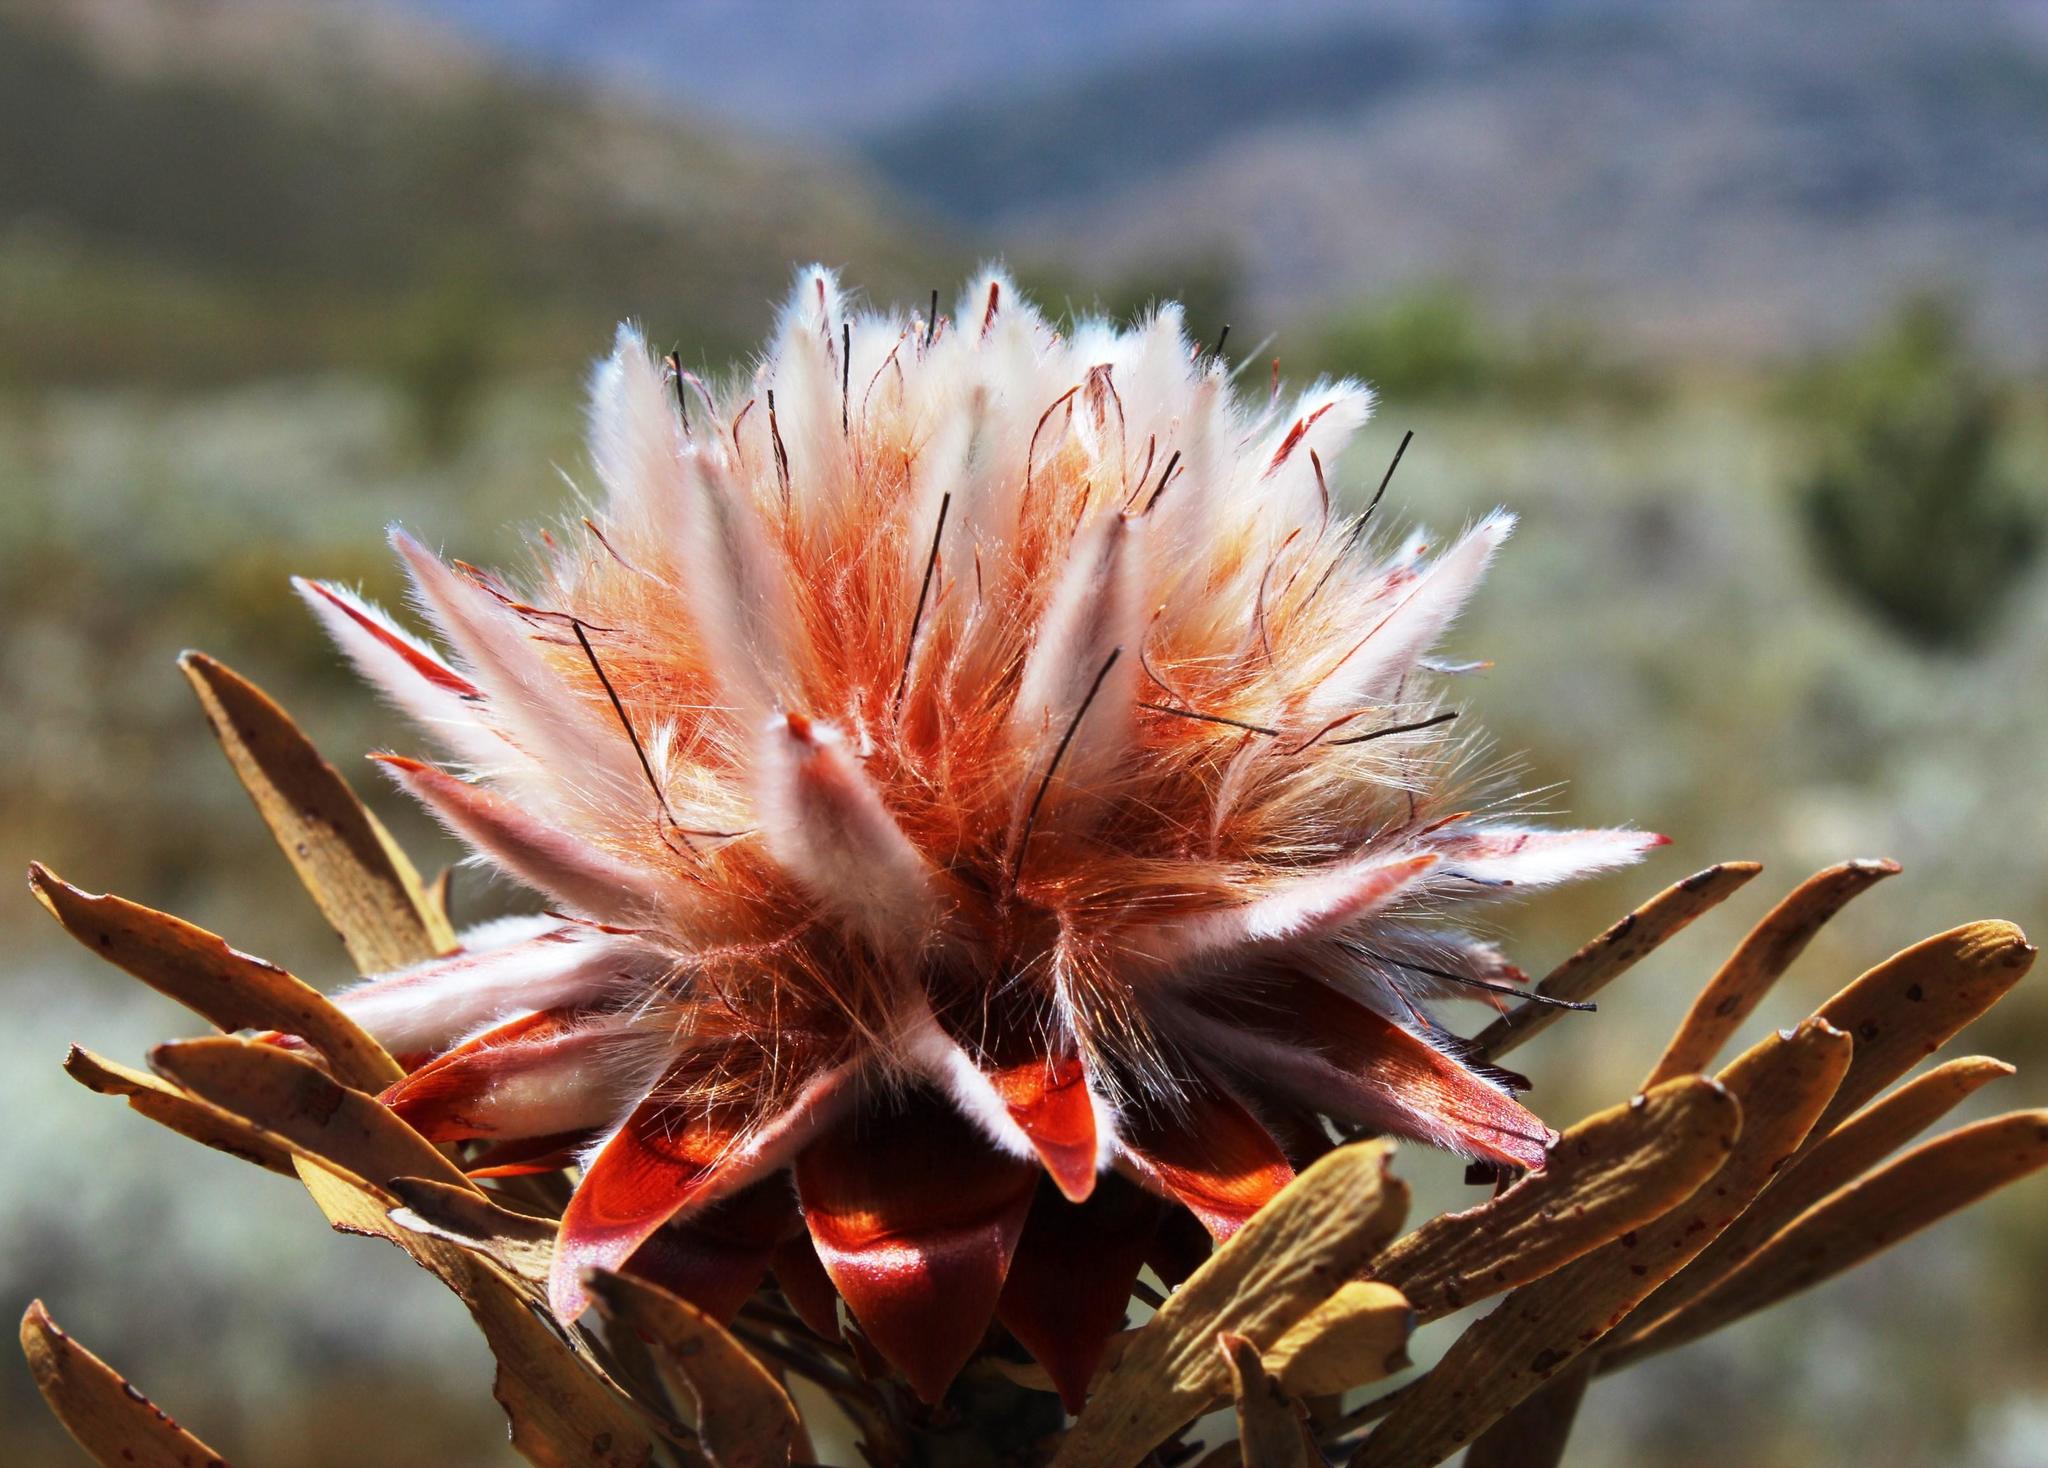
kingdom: Plantae
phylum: Tracheophyta
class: Magnoliopsida
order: Proteales
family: Proteaceae
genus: Leucadendron
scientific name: Leucadendron rubrum
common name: Spinning top
